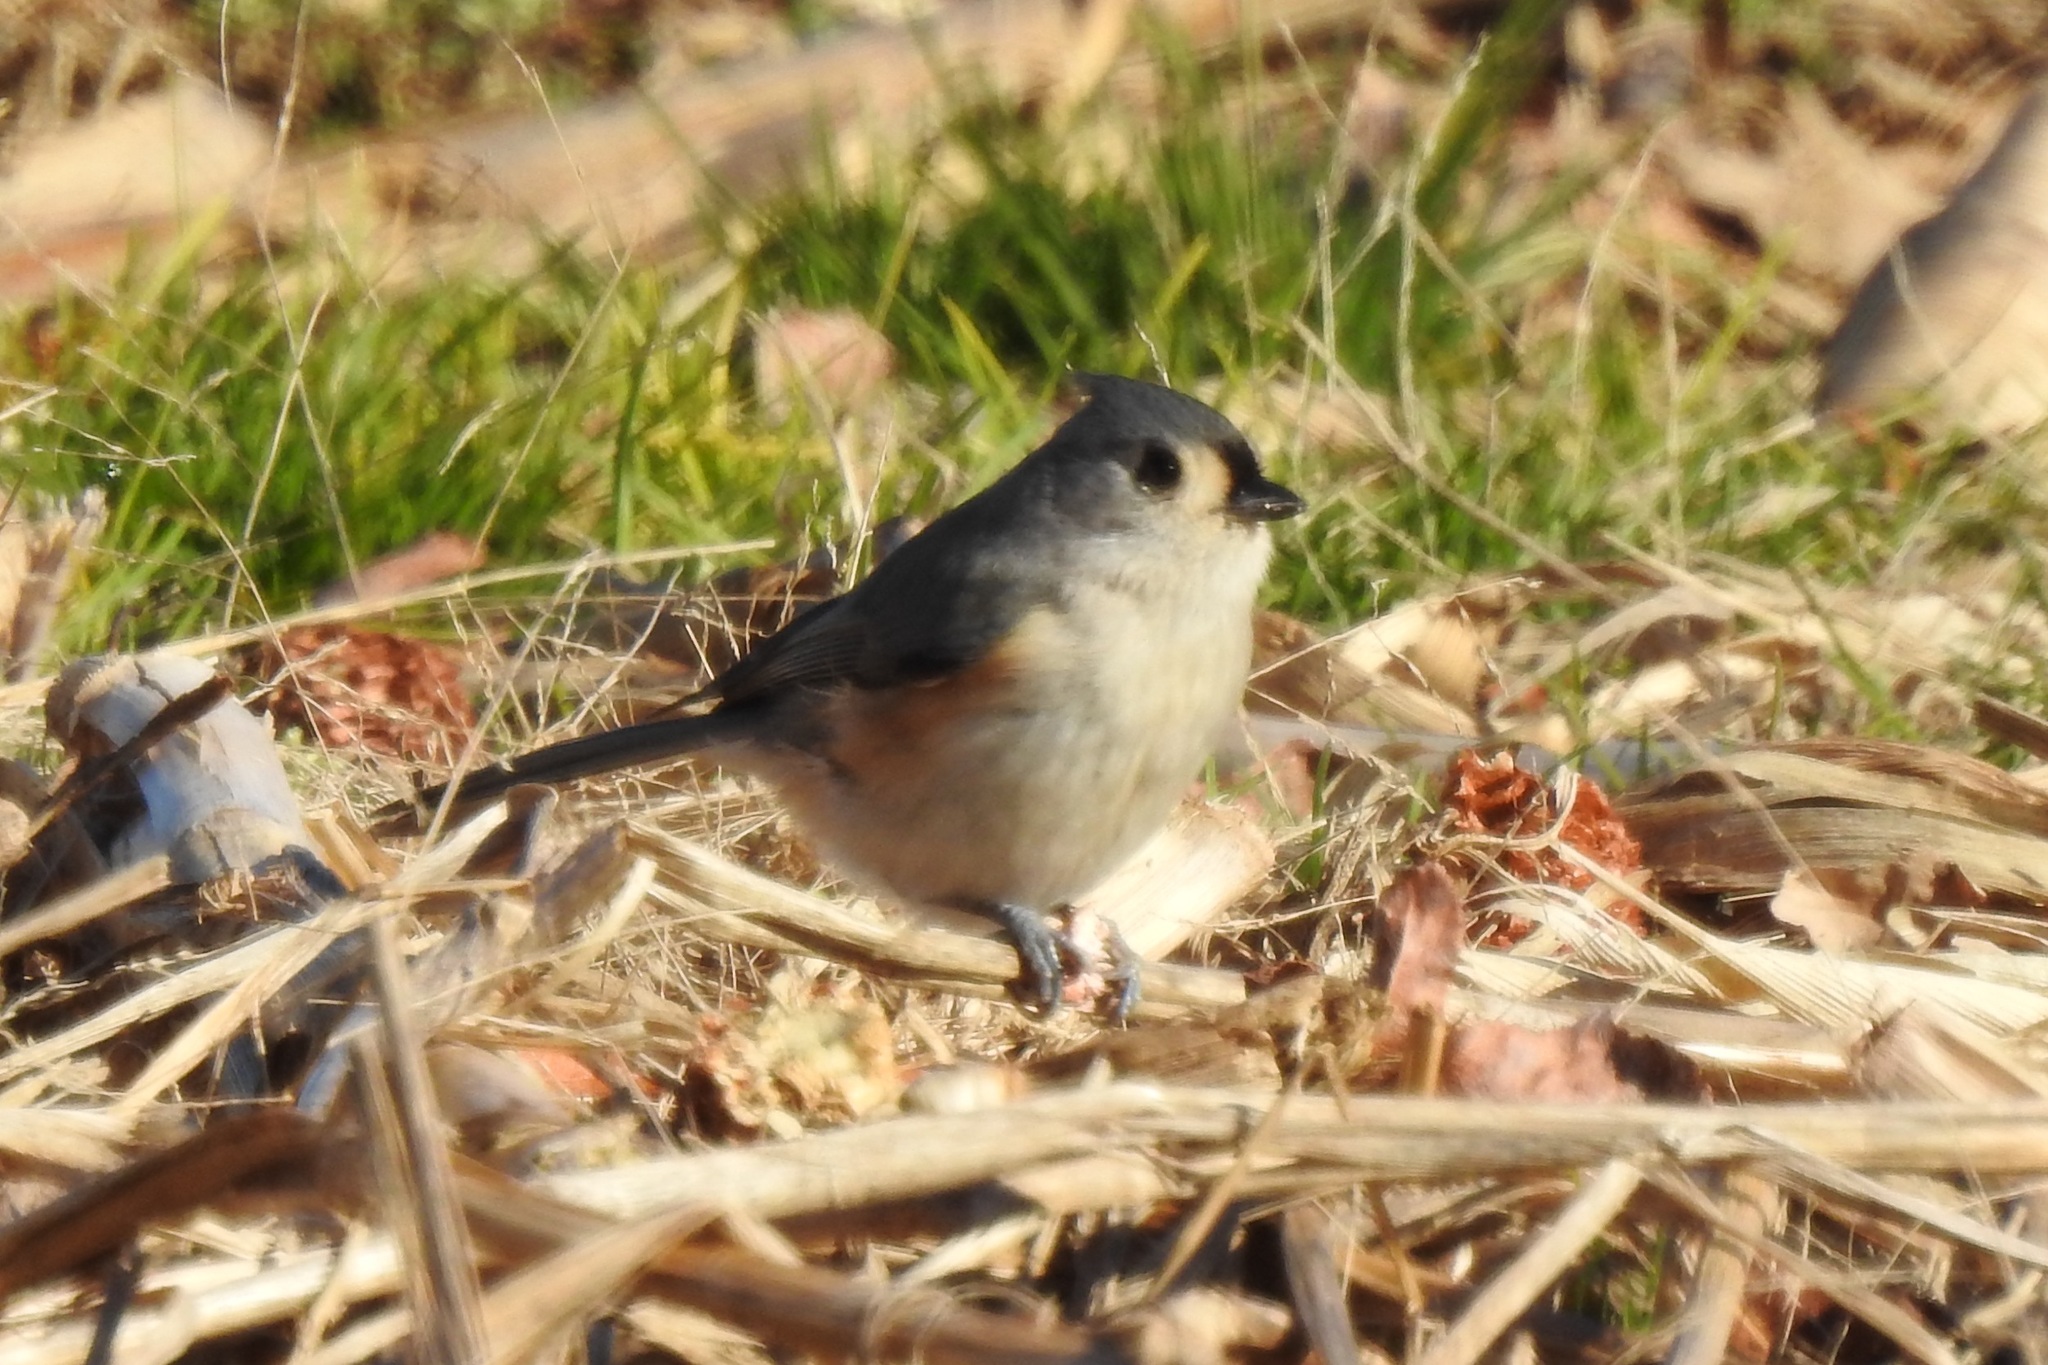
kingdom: Animalia
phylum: Chordata
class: Aves
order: Passeriformes
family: Paridae
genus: Baeolophus
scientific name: Baeolophus bicolor
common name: Tufted titmouse
